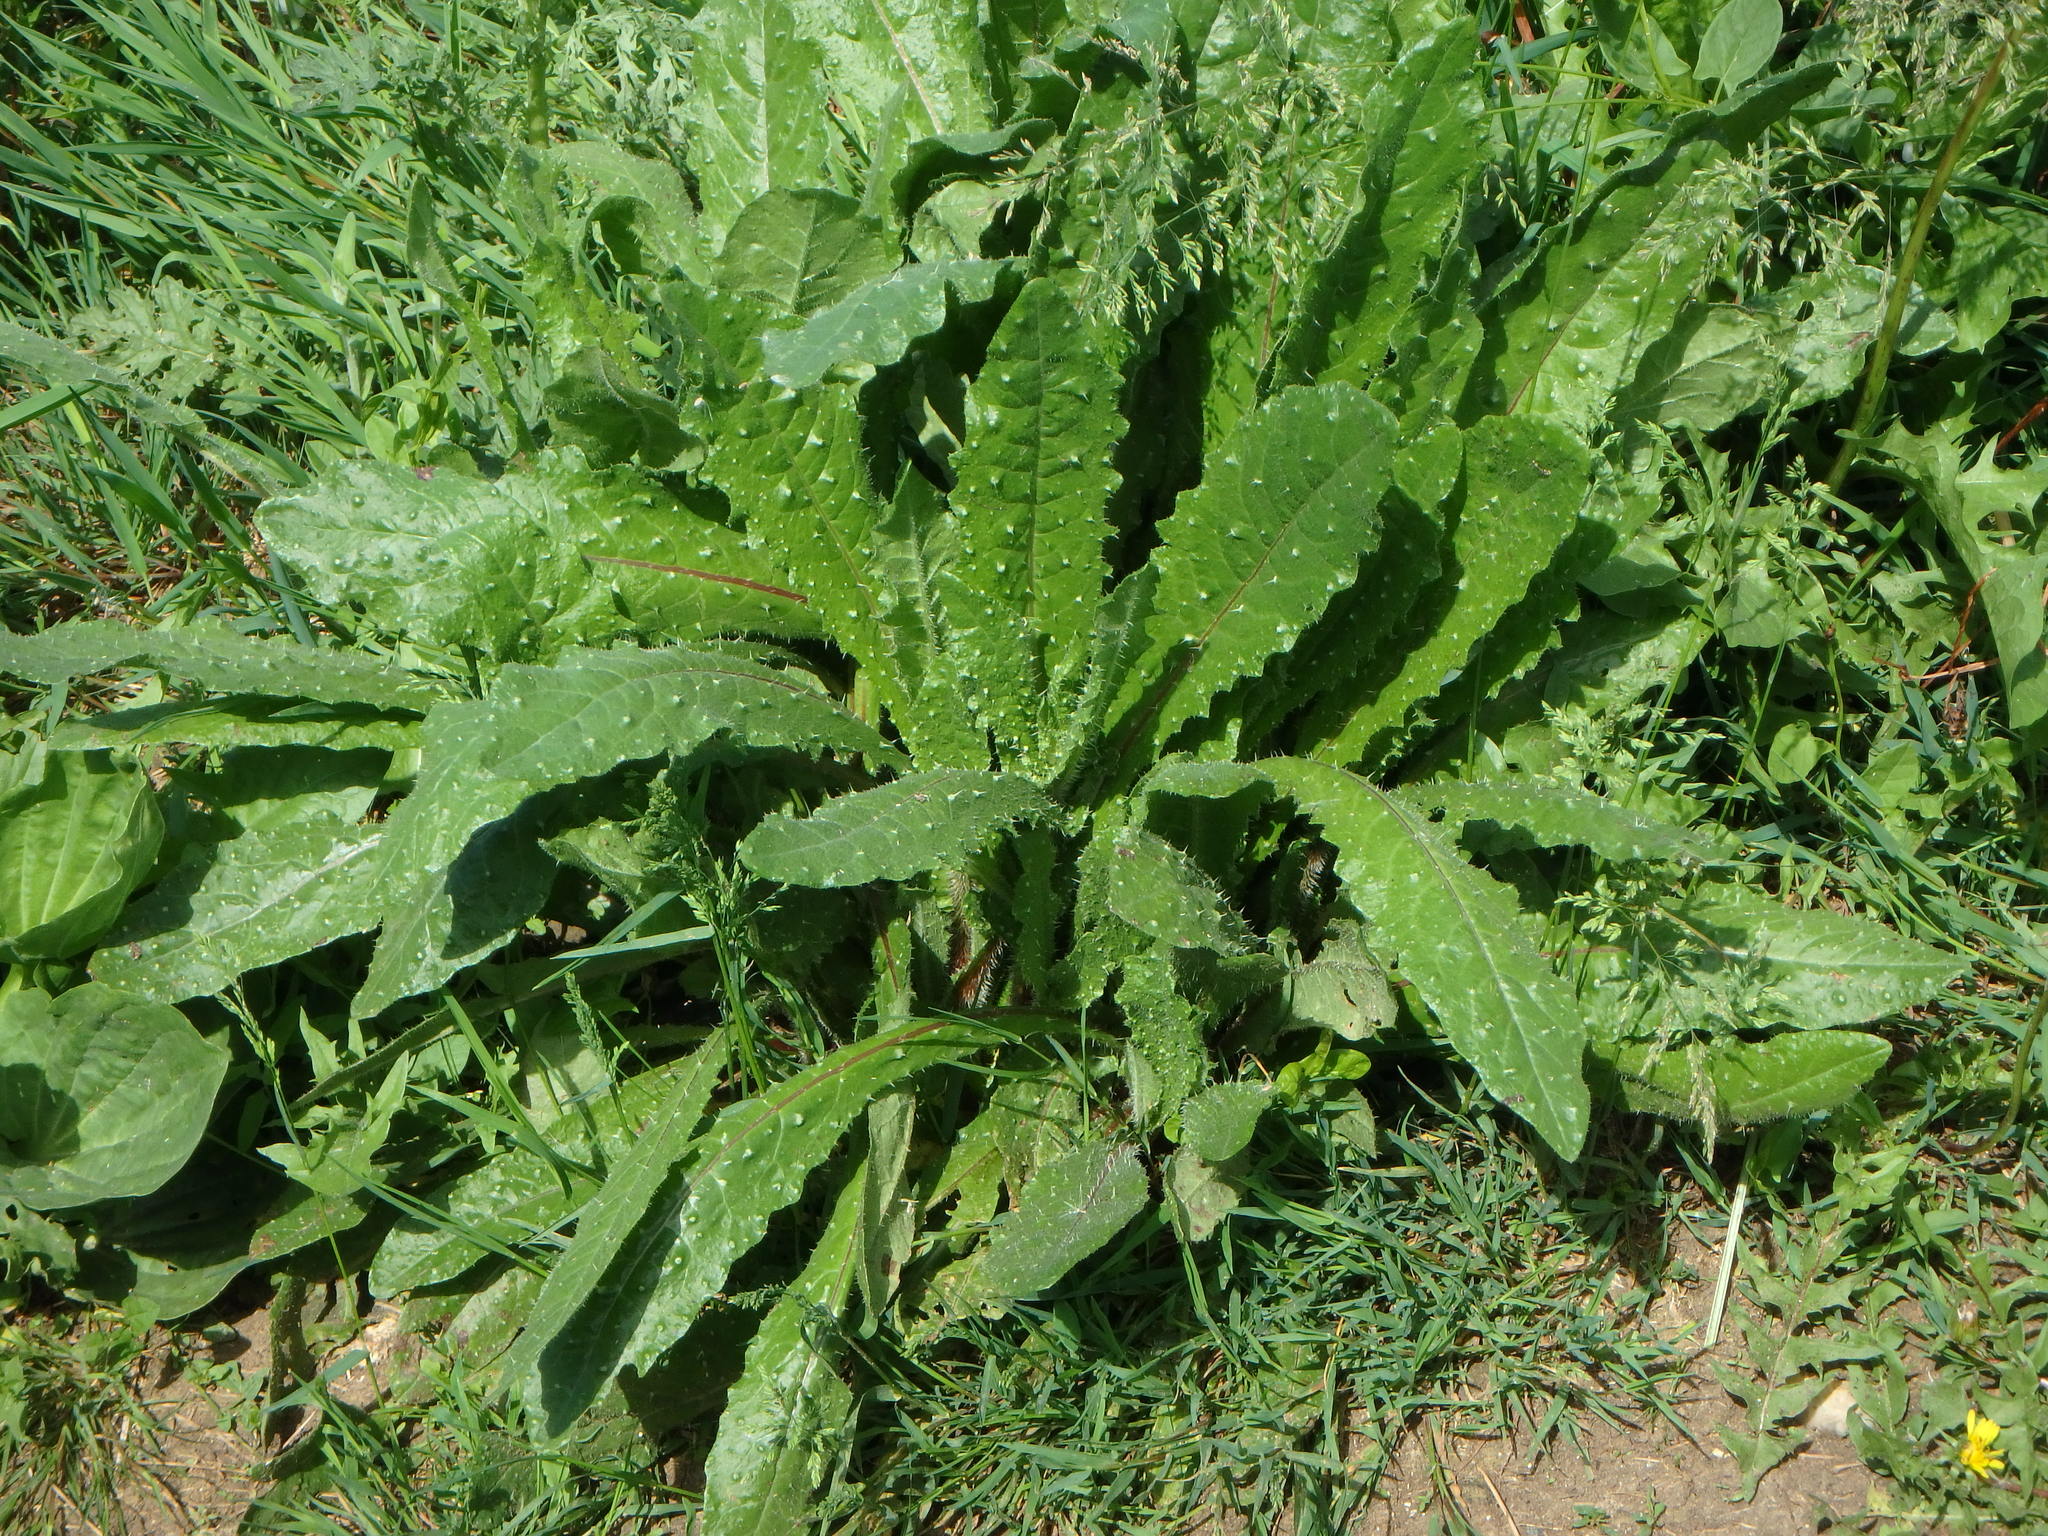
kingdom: Plantae
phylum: Tracheophyta
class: Magnoliopsida
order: Asterales
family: Asteraceae
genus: Helminthotheca
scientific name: Helminthotheca echioides
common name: Ox-tongue
